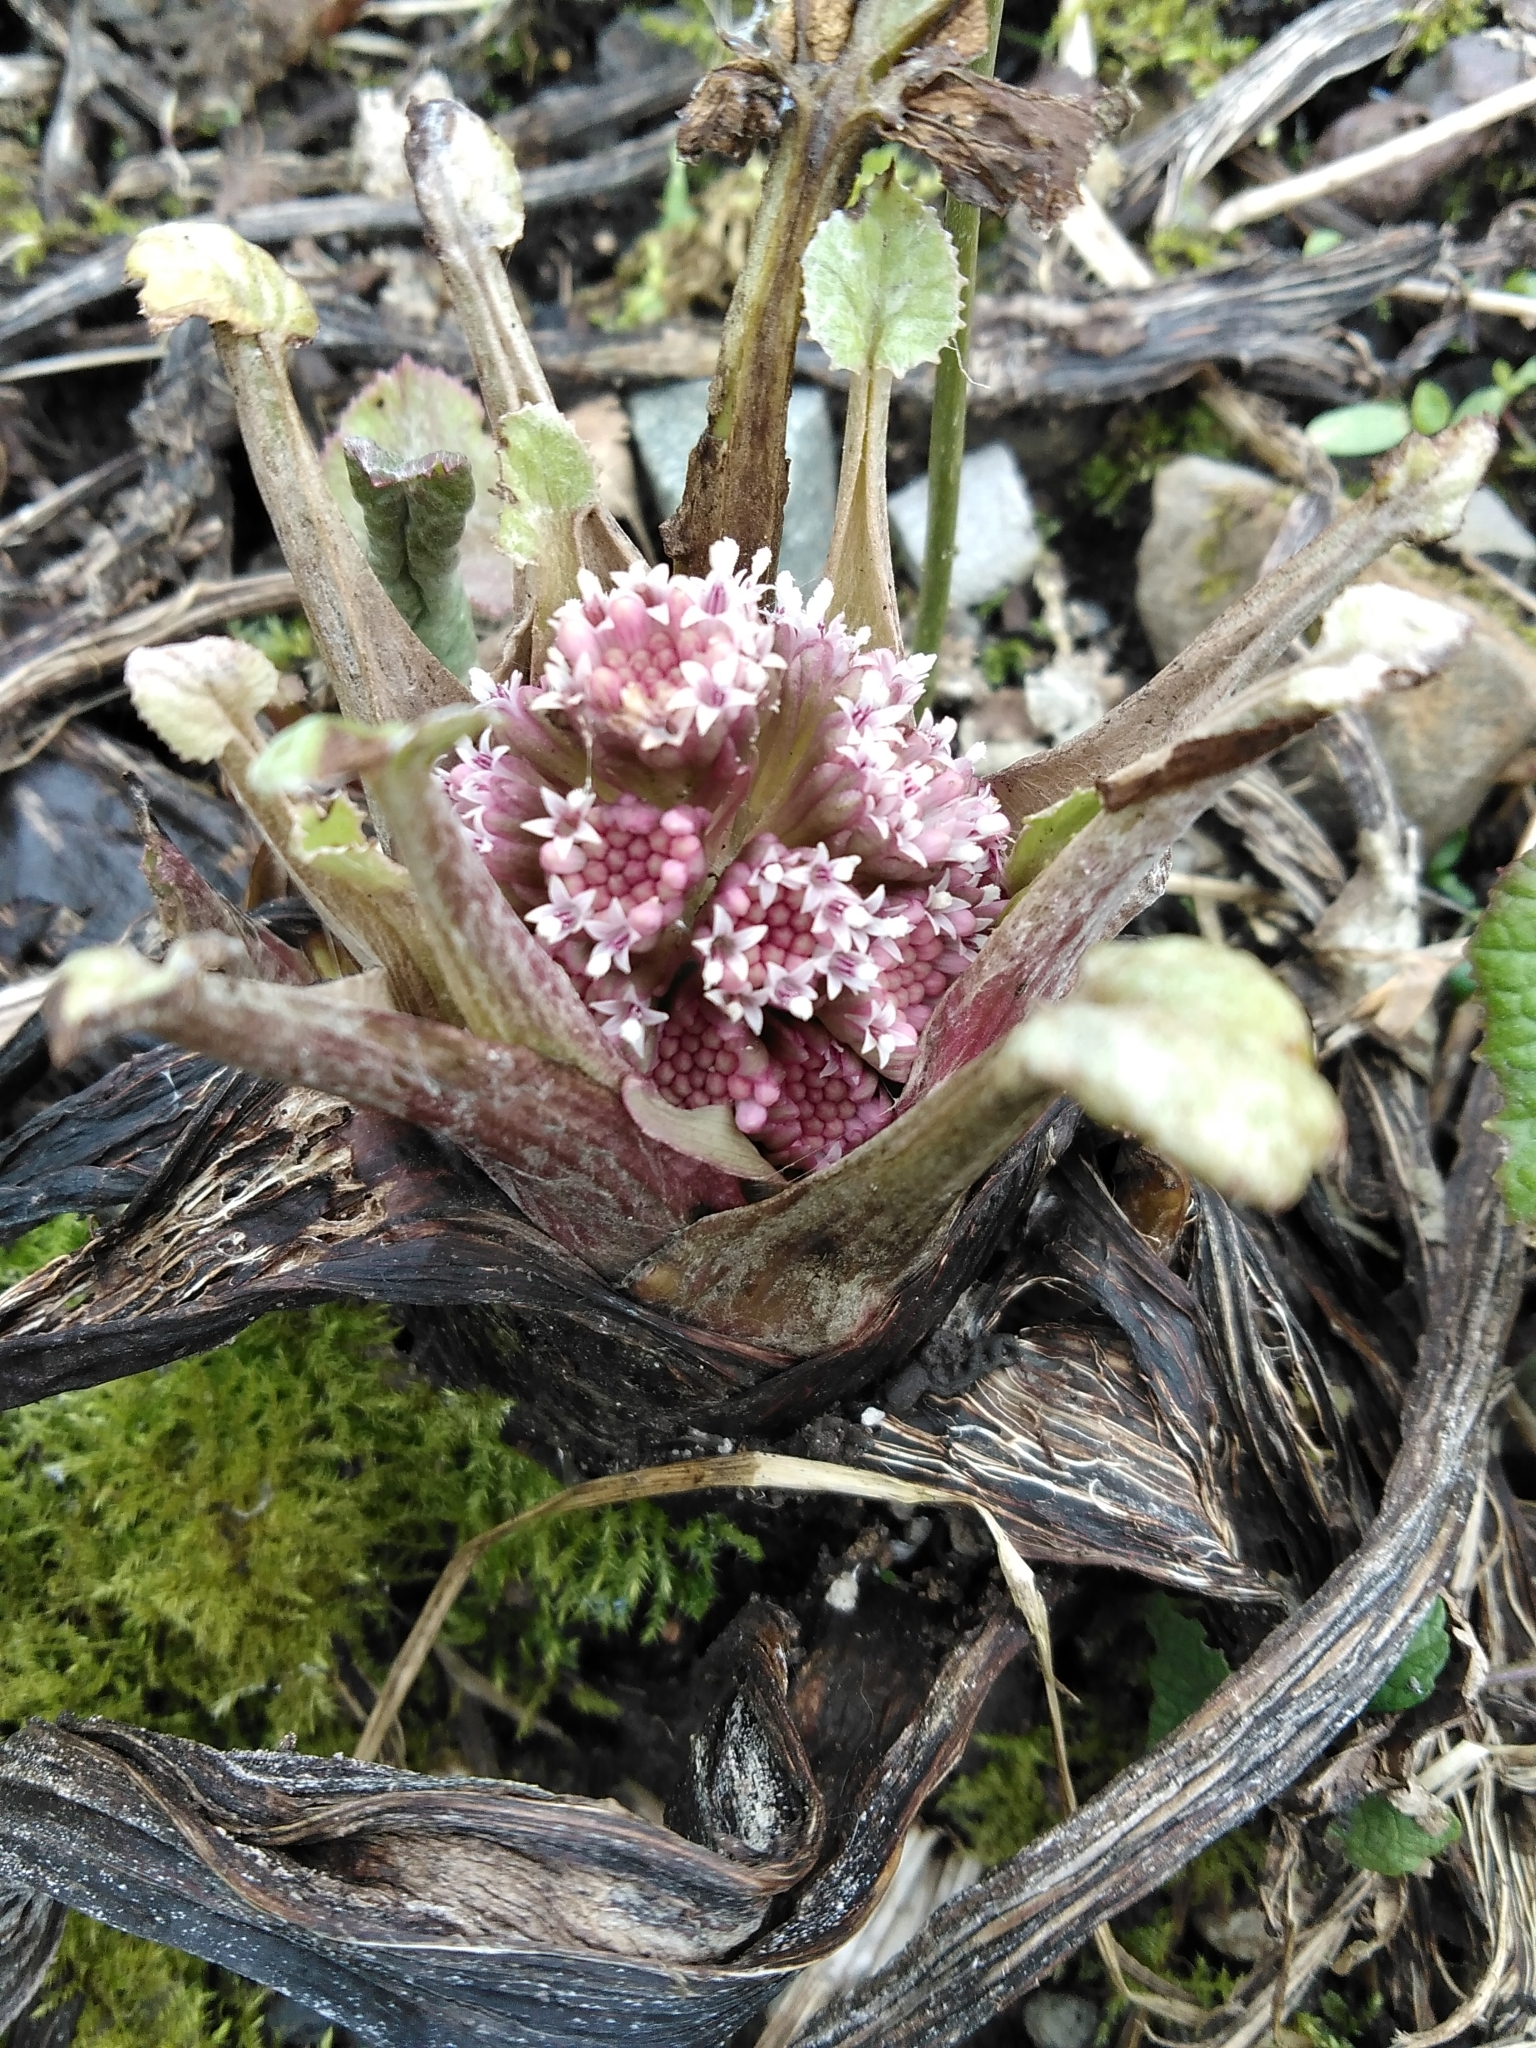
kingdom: Plantae
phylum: Tracheophyta
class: Magnoliopsida
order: Asterales
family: Asteraceae
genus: Petasites
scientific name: Petasites hybridus
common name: Butterbur
